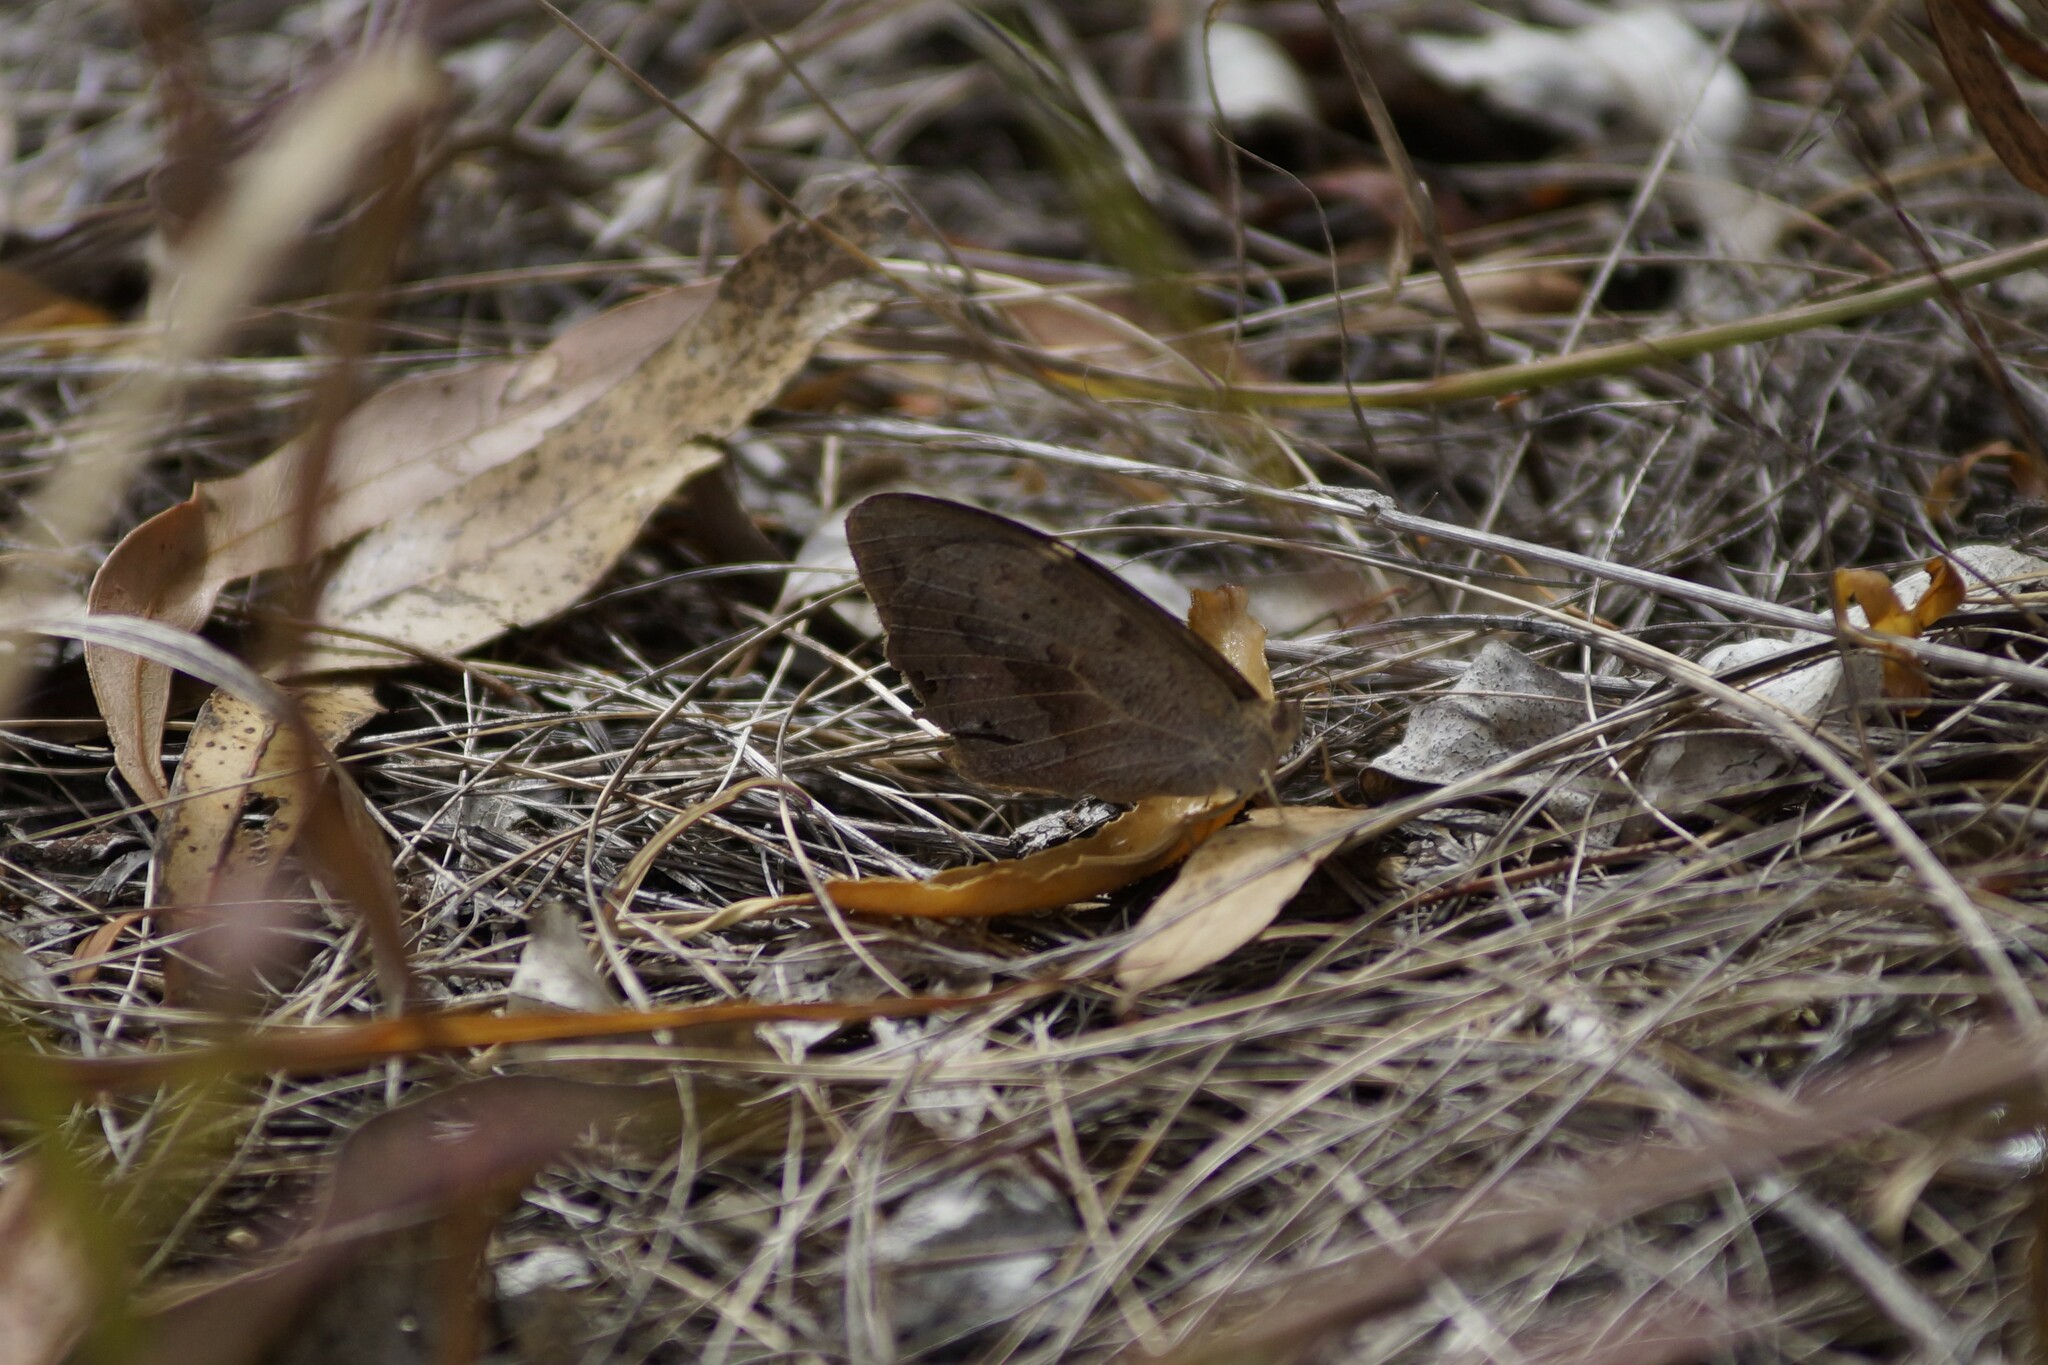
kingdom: Animalia
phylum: Arthropoda
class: Insecta
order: Lepidoptera
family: Nymphalidae
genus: Heteronympha
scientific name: Heteronympha merope
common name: Common brown
